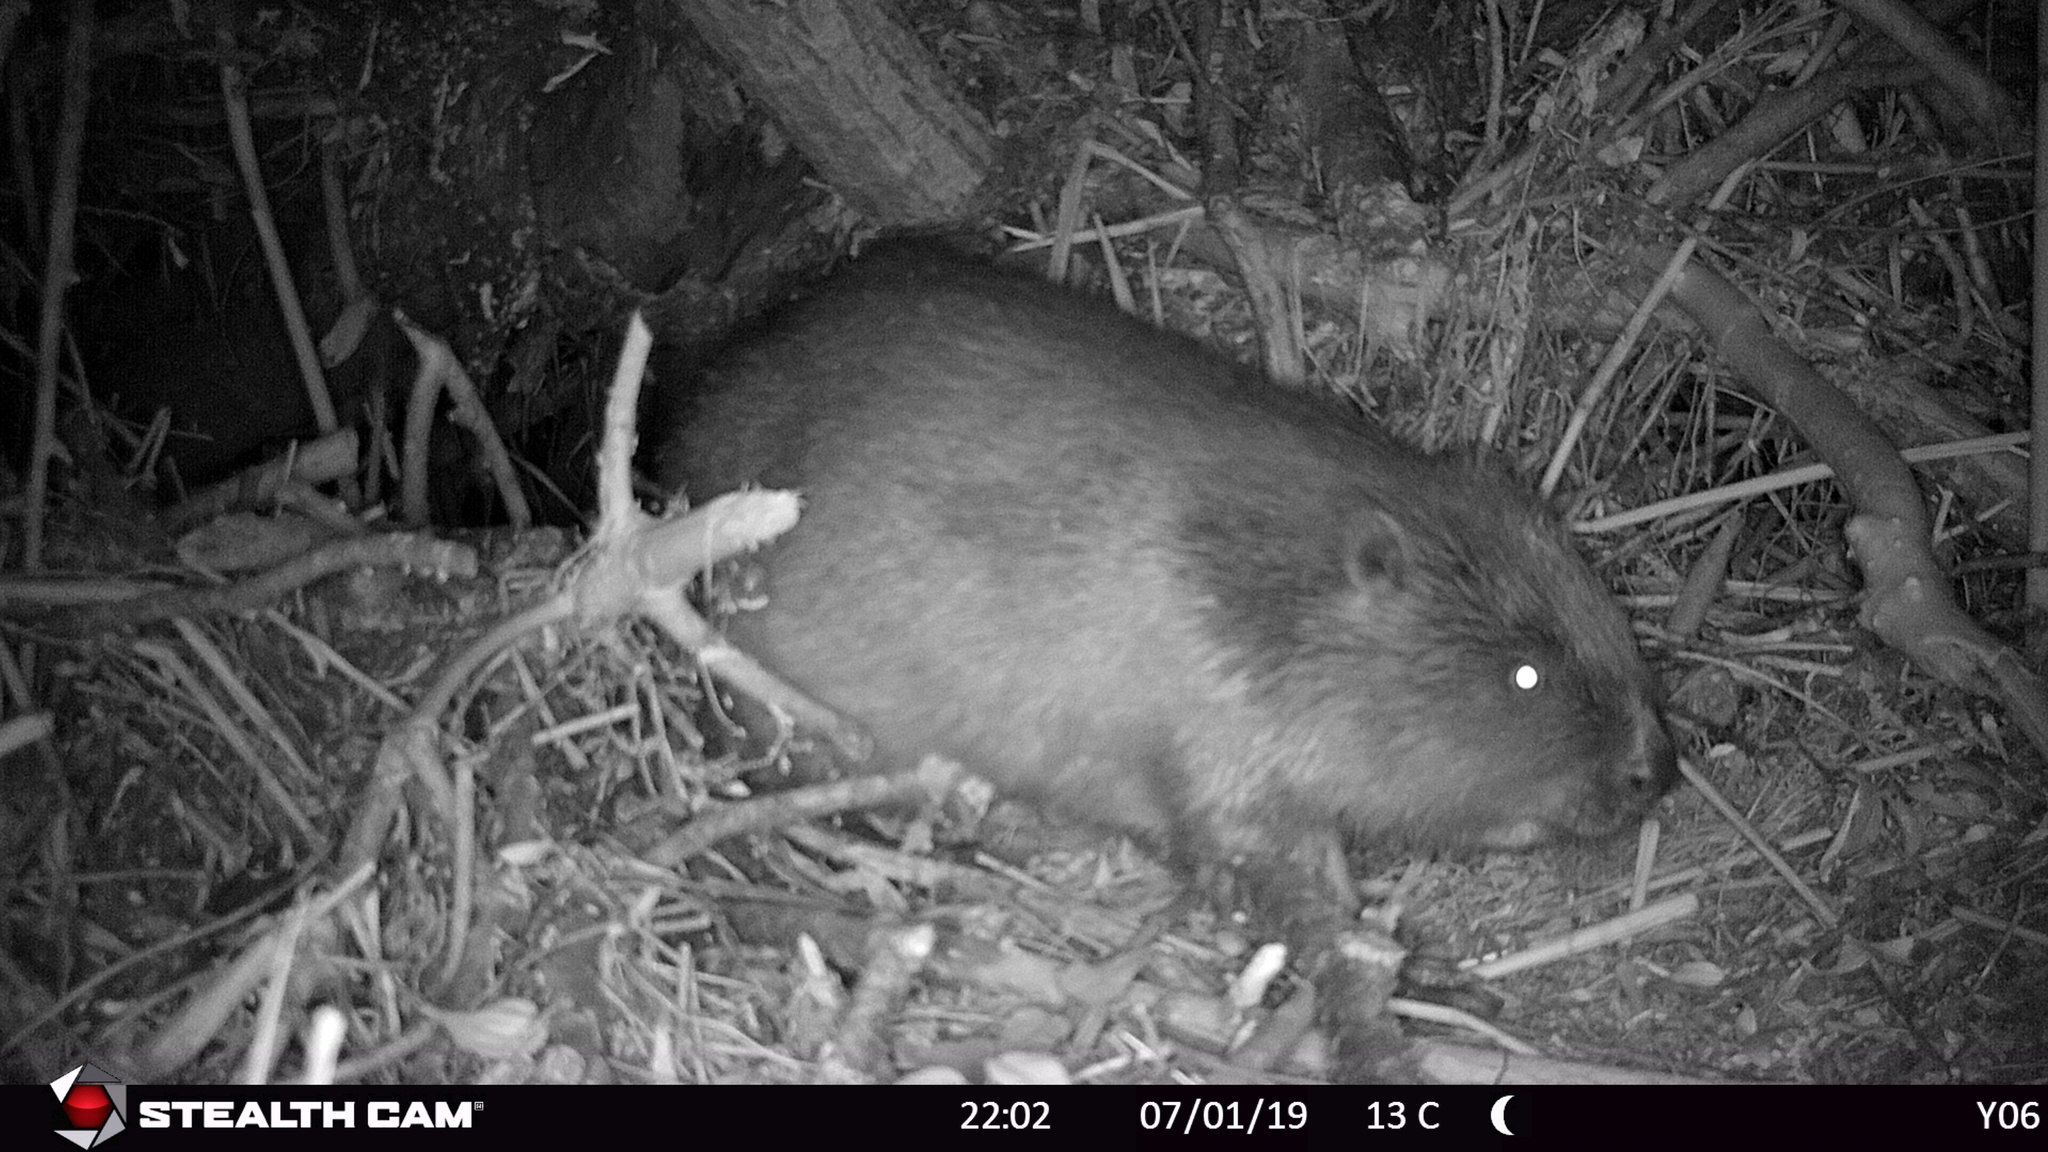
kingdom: Animalia
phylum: Chordata
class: Mammalia
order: Rodentia
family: Castoridae
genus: Castor
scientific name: Castor fiber
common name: Eurasian beaver
